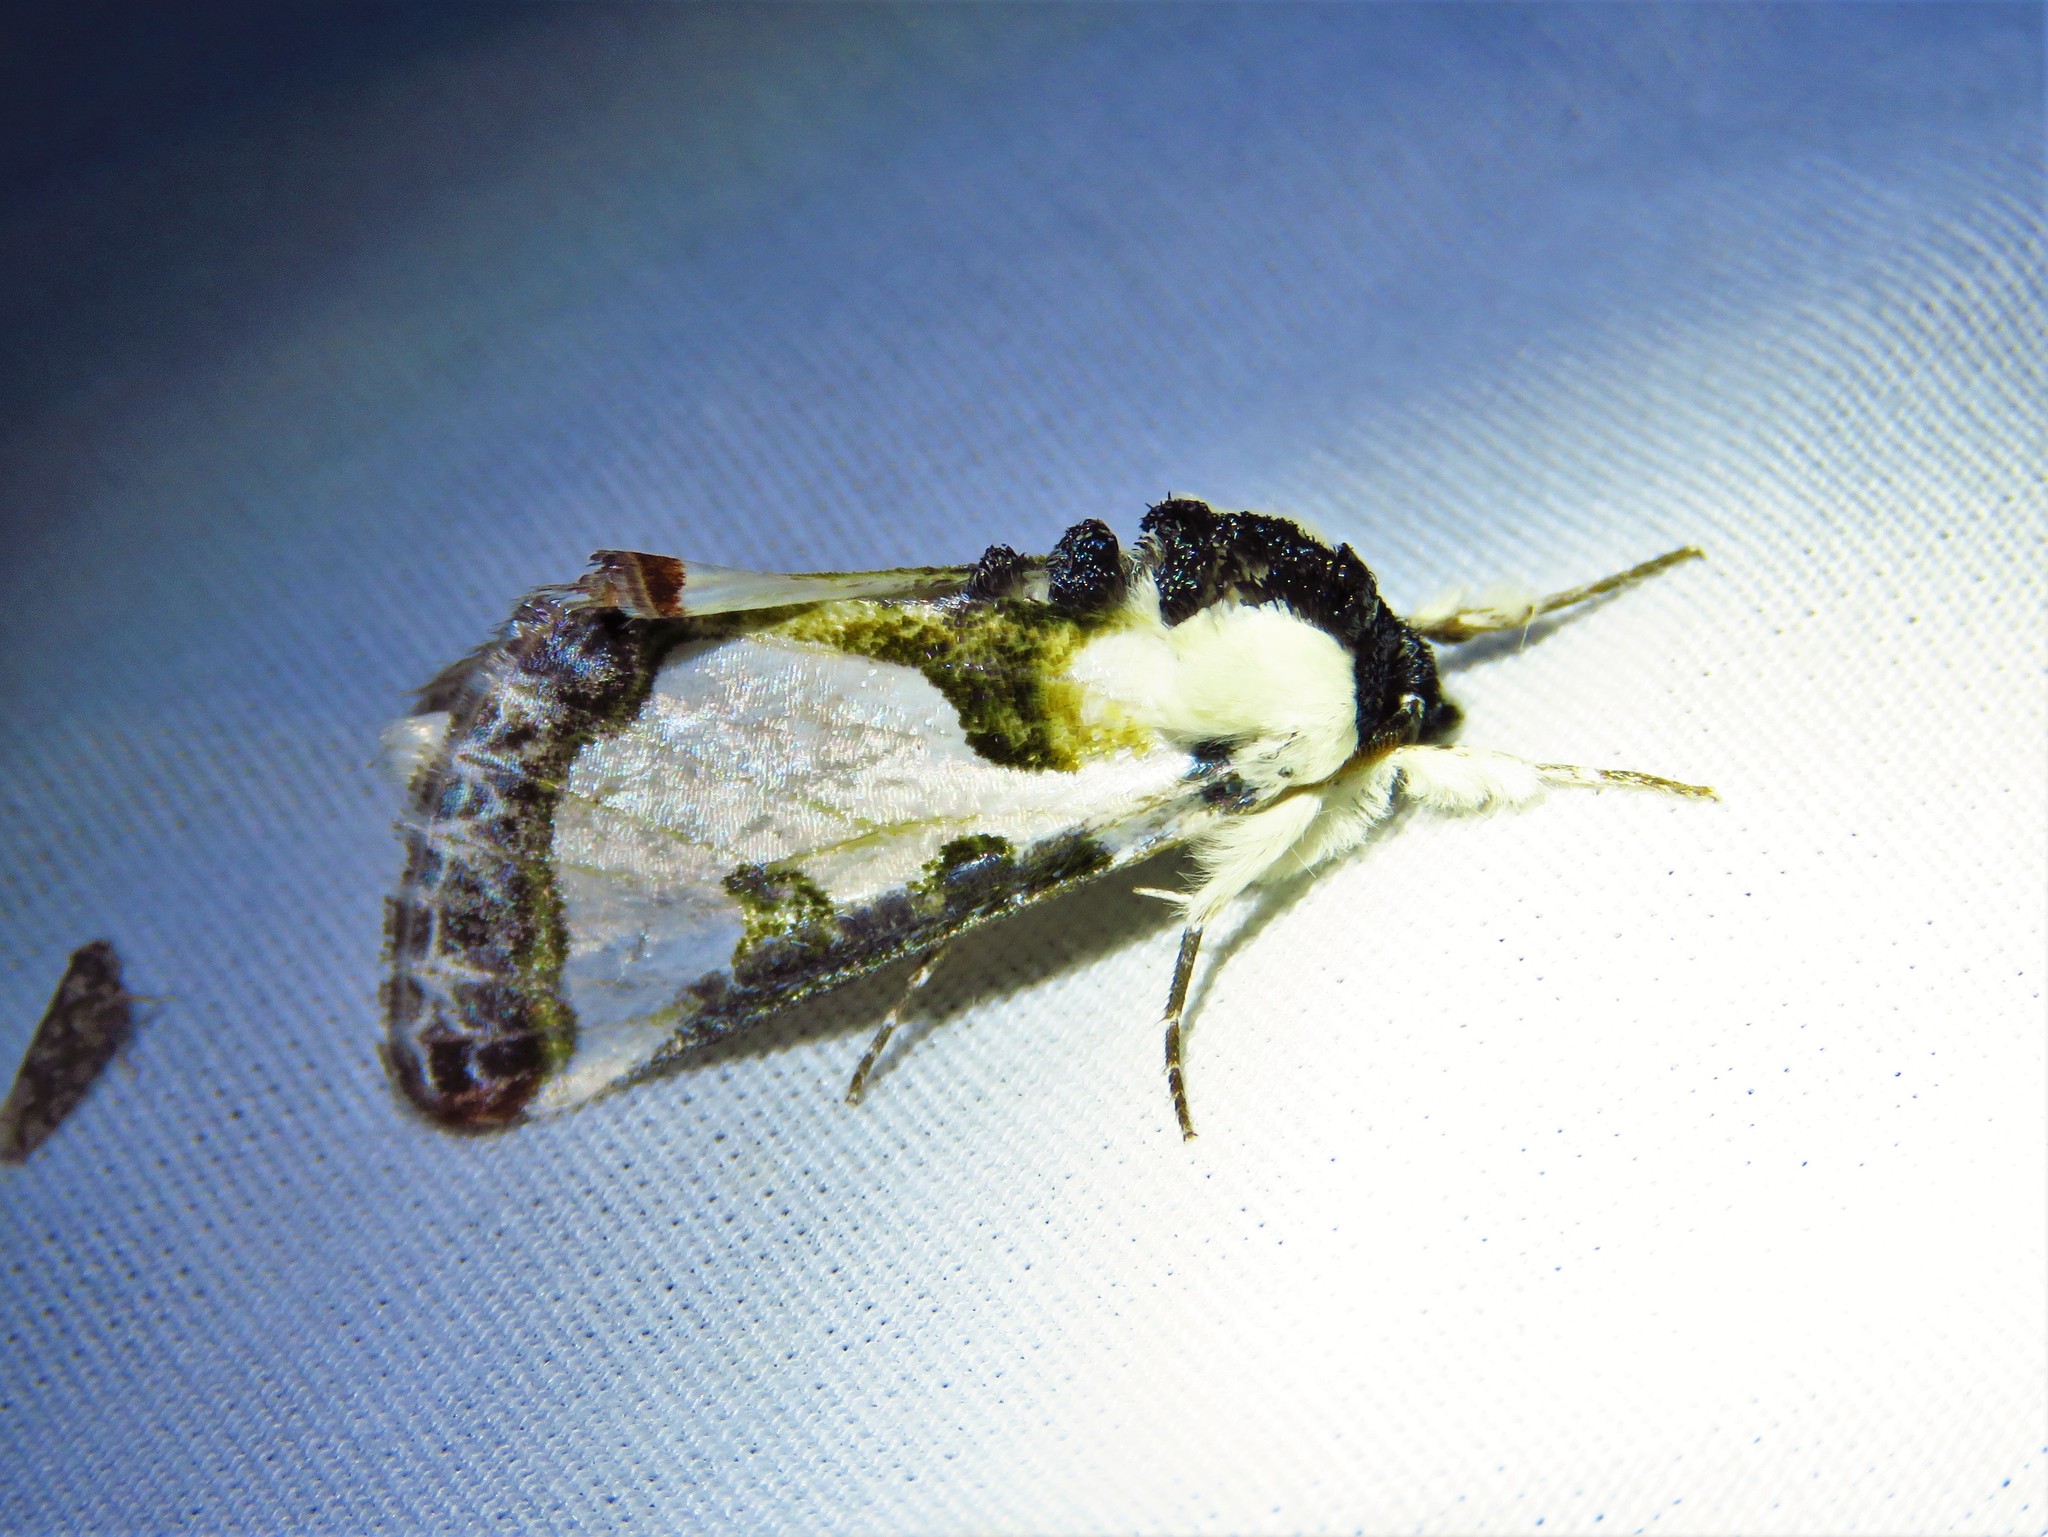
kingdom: Animalia
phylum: Arthropoda
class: Insecta
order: Lepidoptera
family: Noctuidae
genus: Xerociris
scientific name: Xerociris wilsonii
